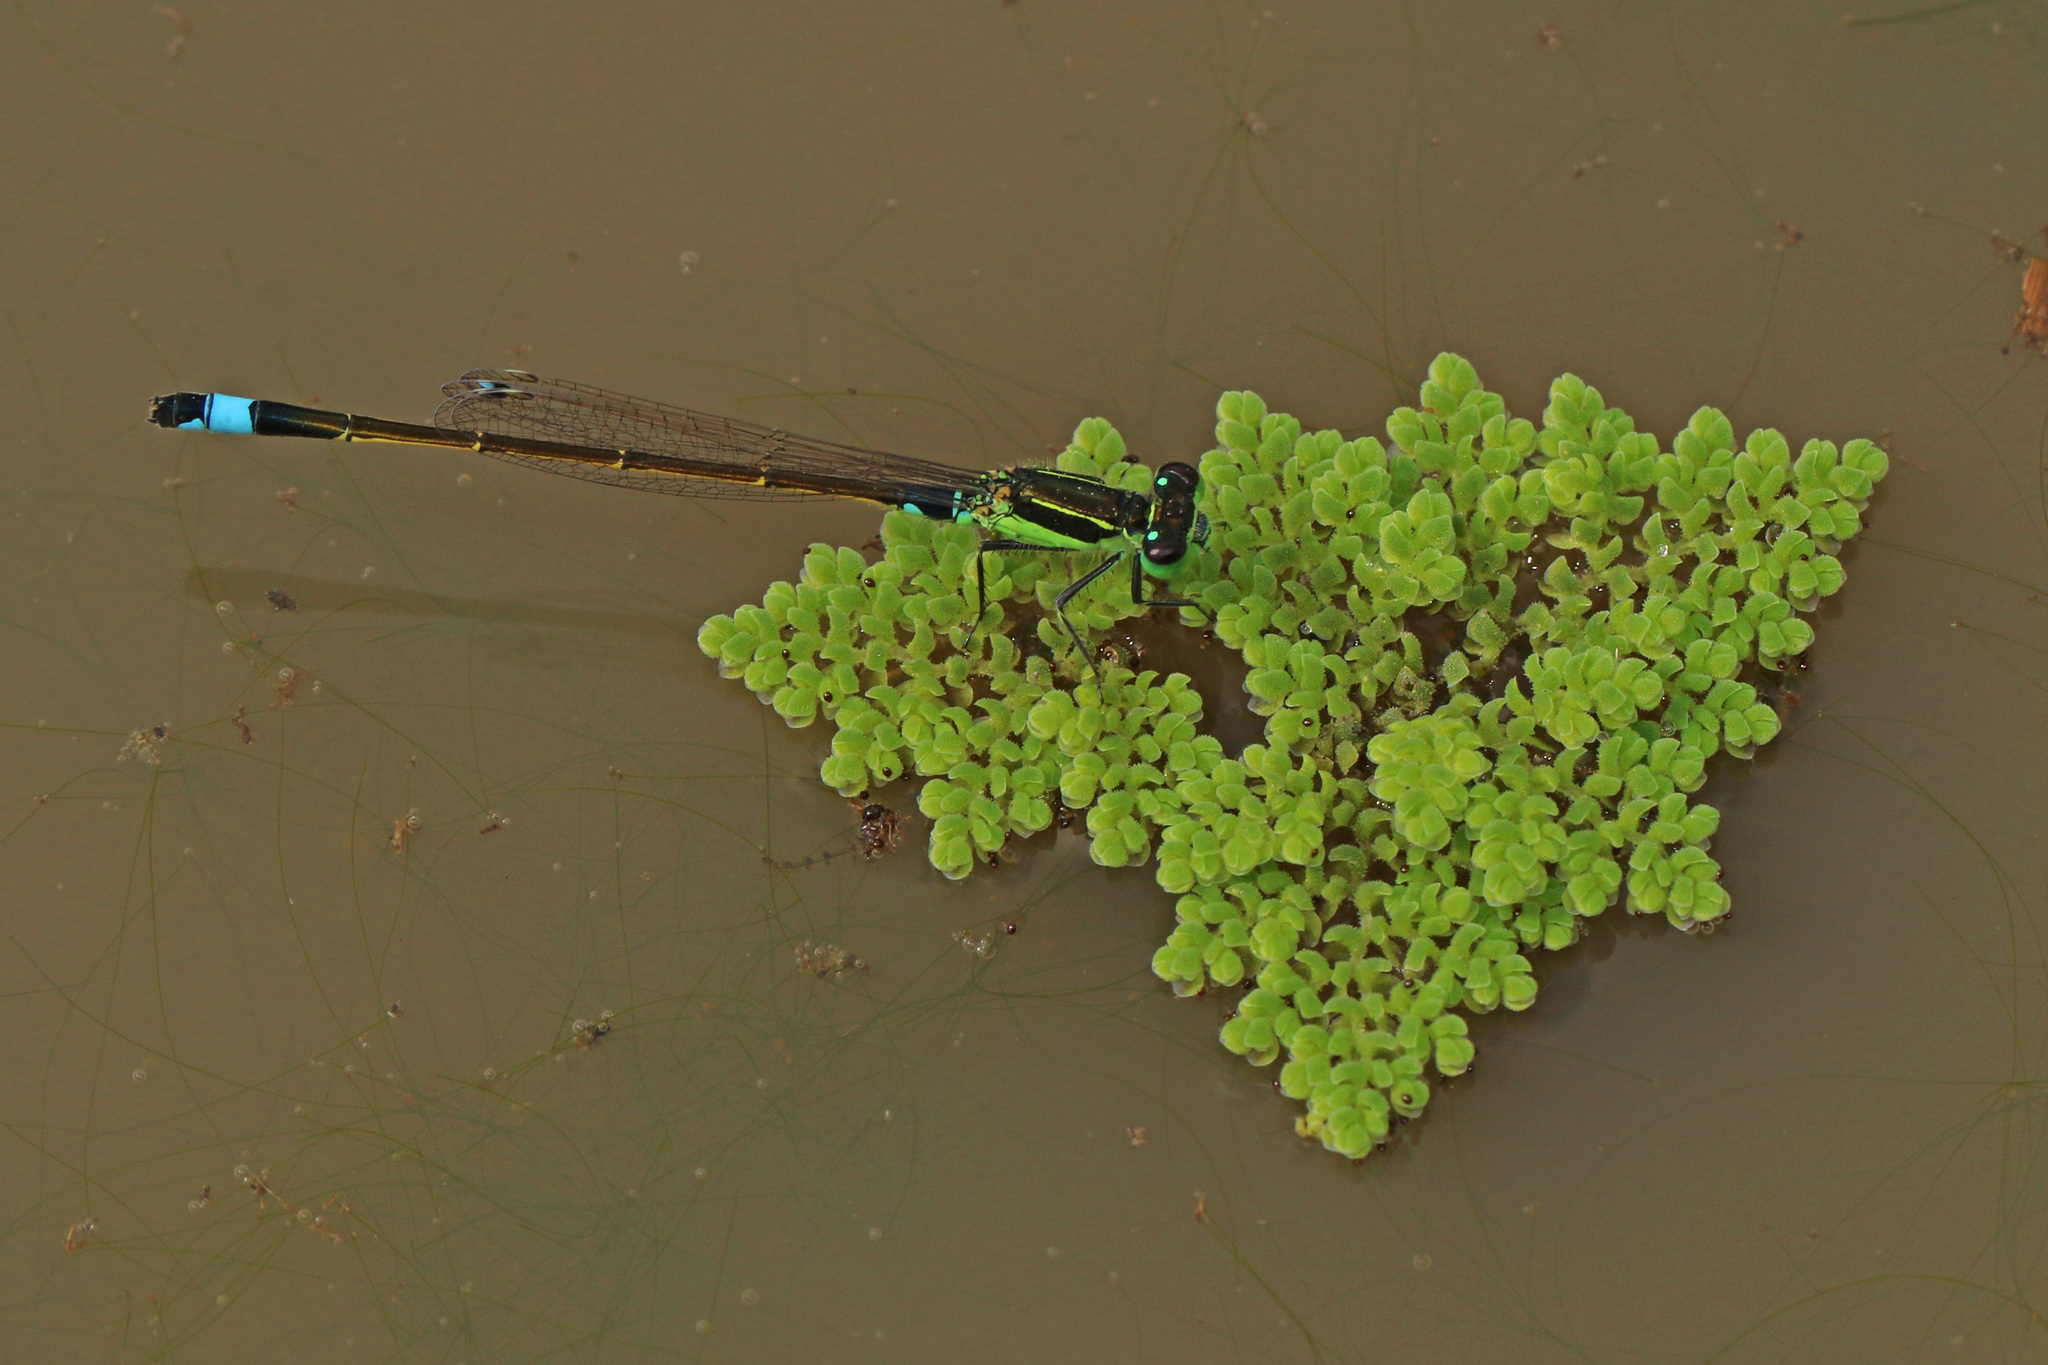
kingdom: Animalia
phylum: Arthropoda
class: Insecta
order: Odonata
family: Coenagrionidae
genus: Ischnura
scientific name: Ischnura senegalensis
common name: Tropical bluetail
